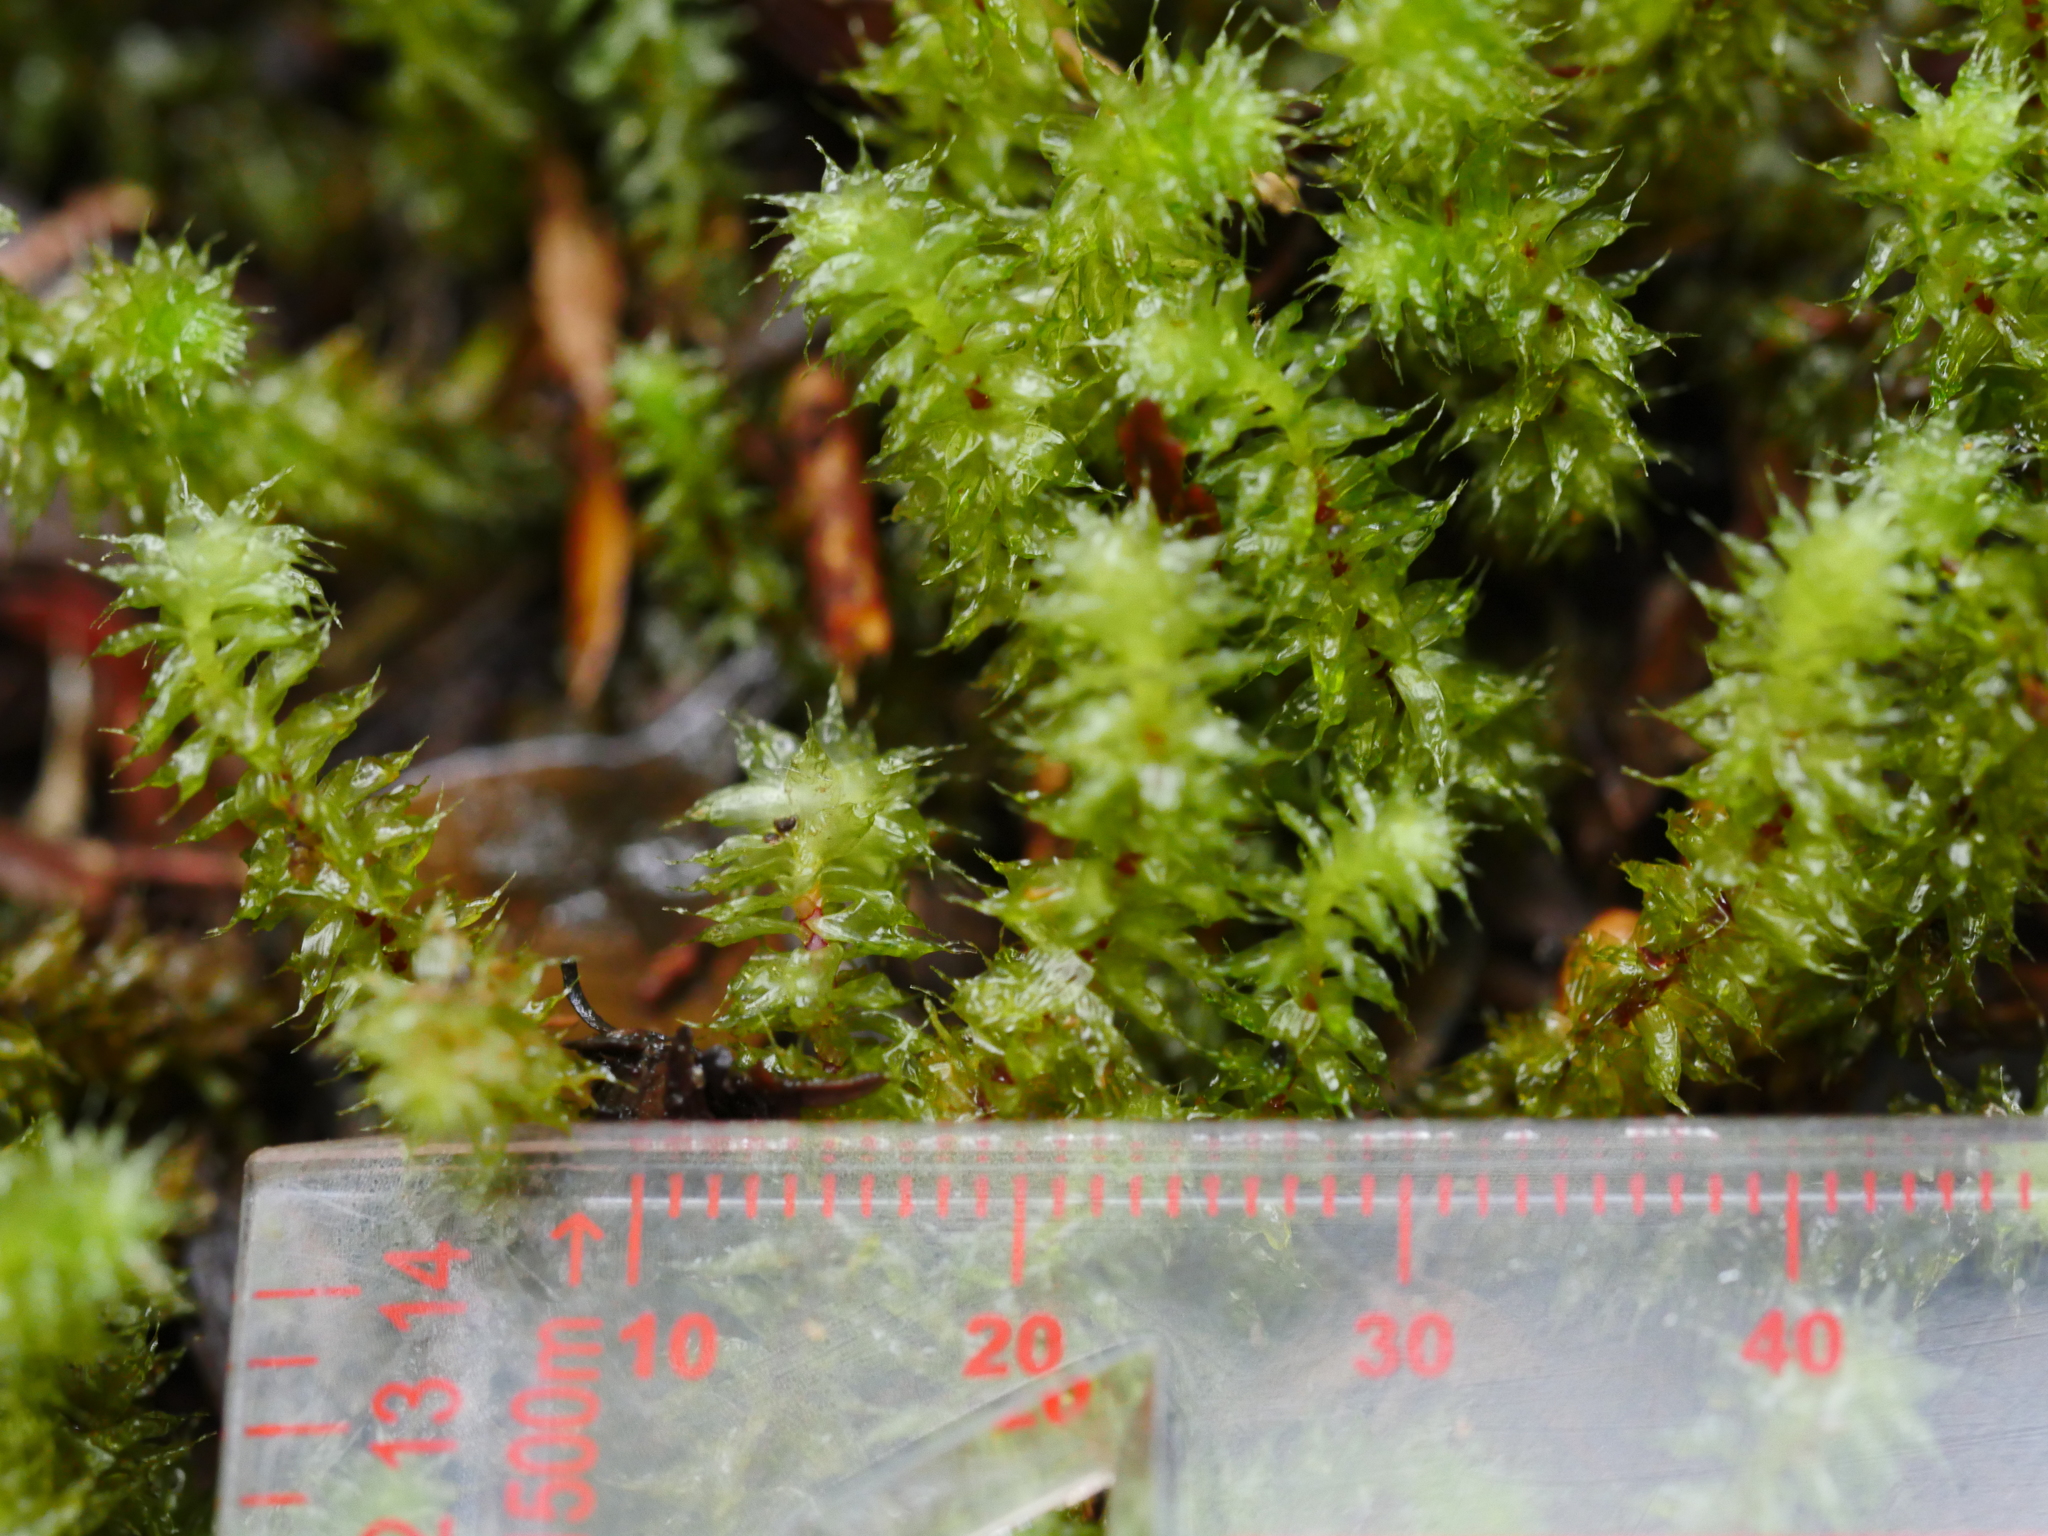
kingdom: Plantae
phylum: Bryophyta
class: Bryopsida
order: Ptychomniales
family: Ptychomniaceae
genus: Ptychomnion
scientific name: Ptychomnion aciculare
